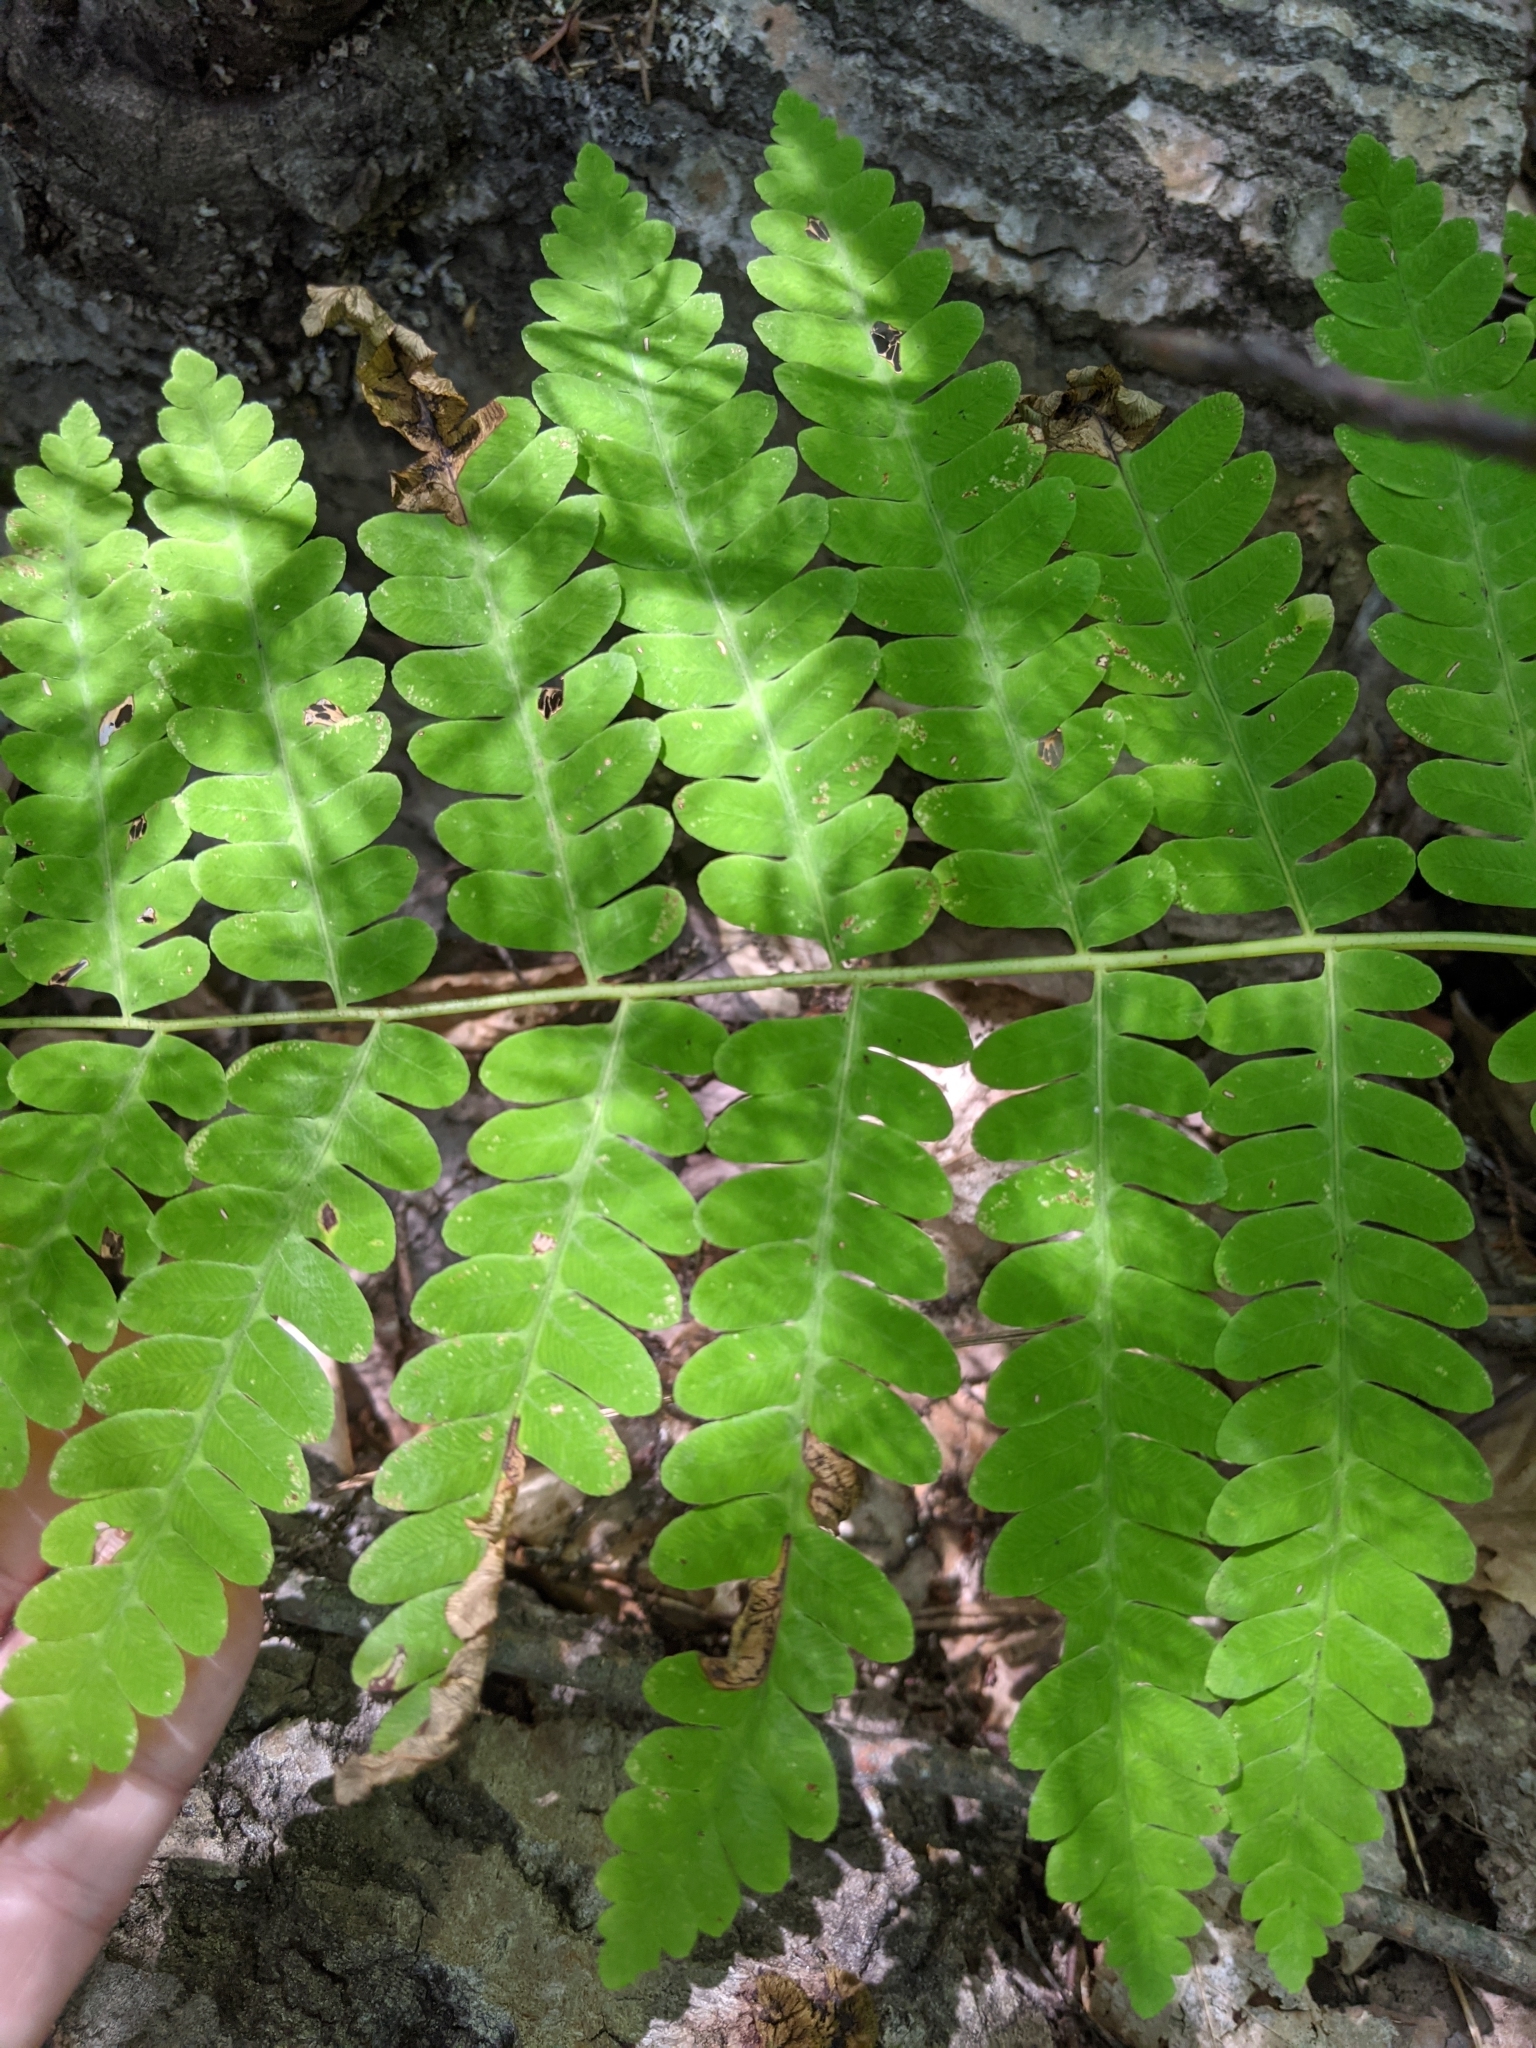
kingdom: Plantae
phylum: Tracheophyta
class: Polypodiopsida
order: Osmundales
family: Osmundaceae
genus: Claytosmunda
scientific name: Claytosmunda claytoniana
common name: Clayton's fern
